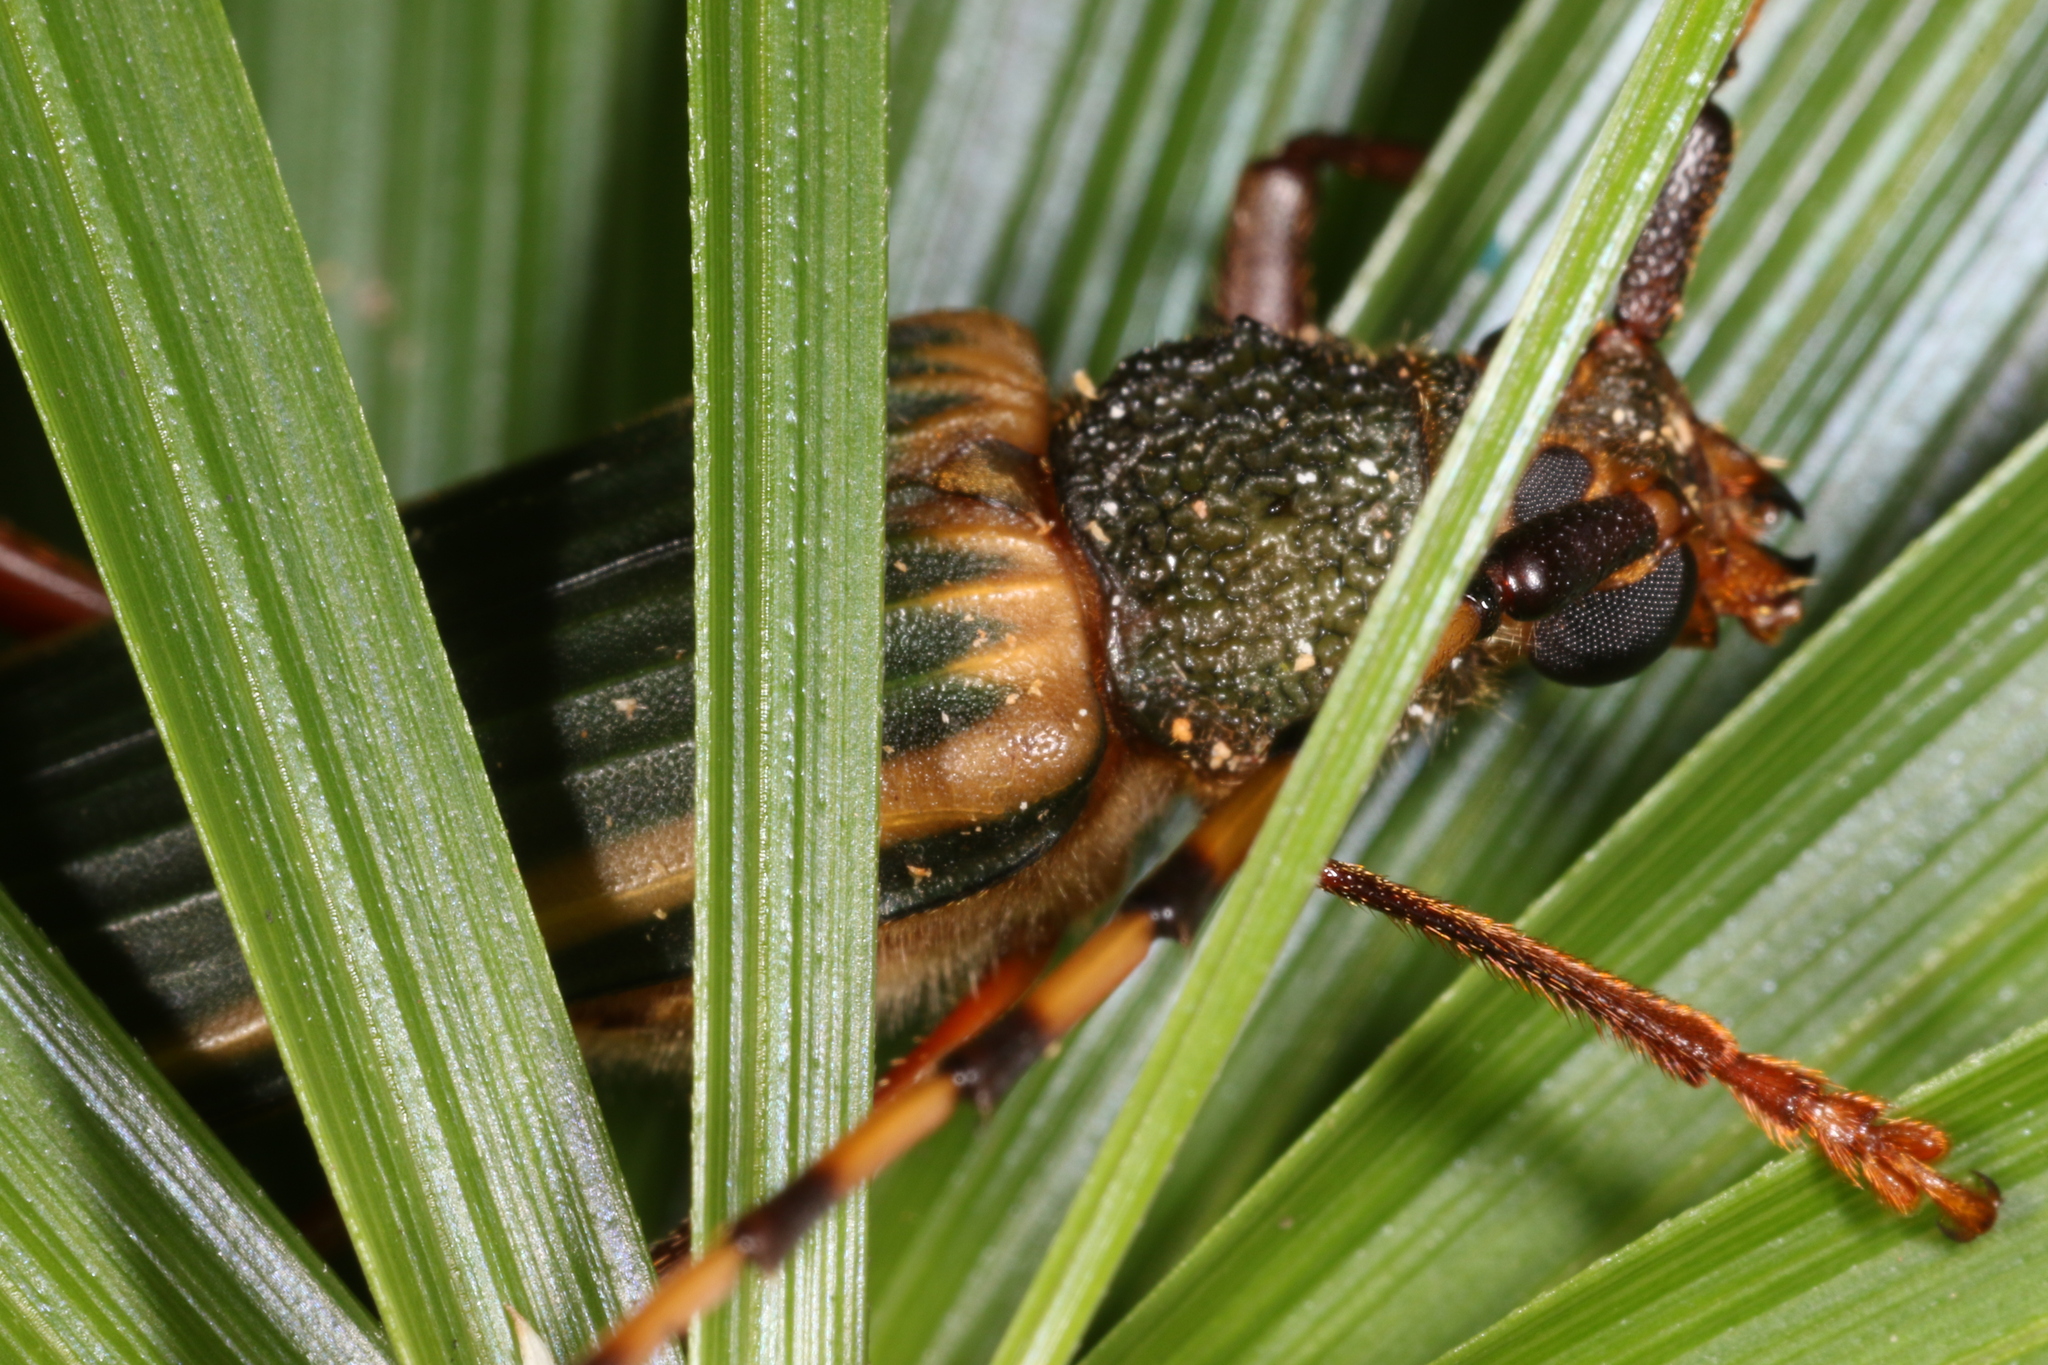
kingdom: Animalia
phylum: Arthropoda
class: Insecta
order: Coleoptera
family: Cerambycidae
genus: Chlorida
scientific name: Chlorida costata
